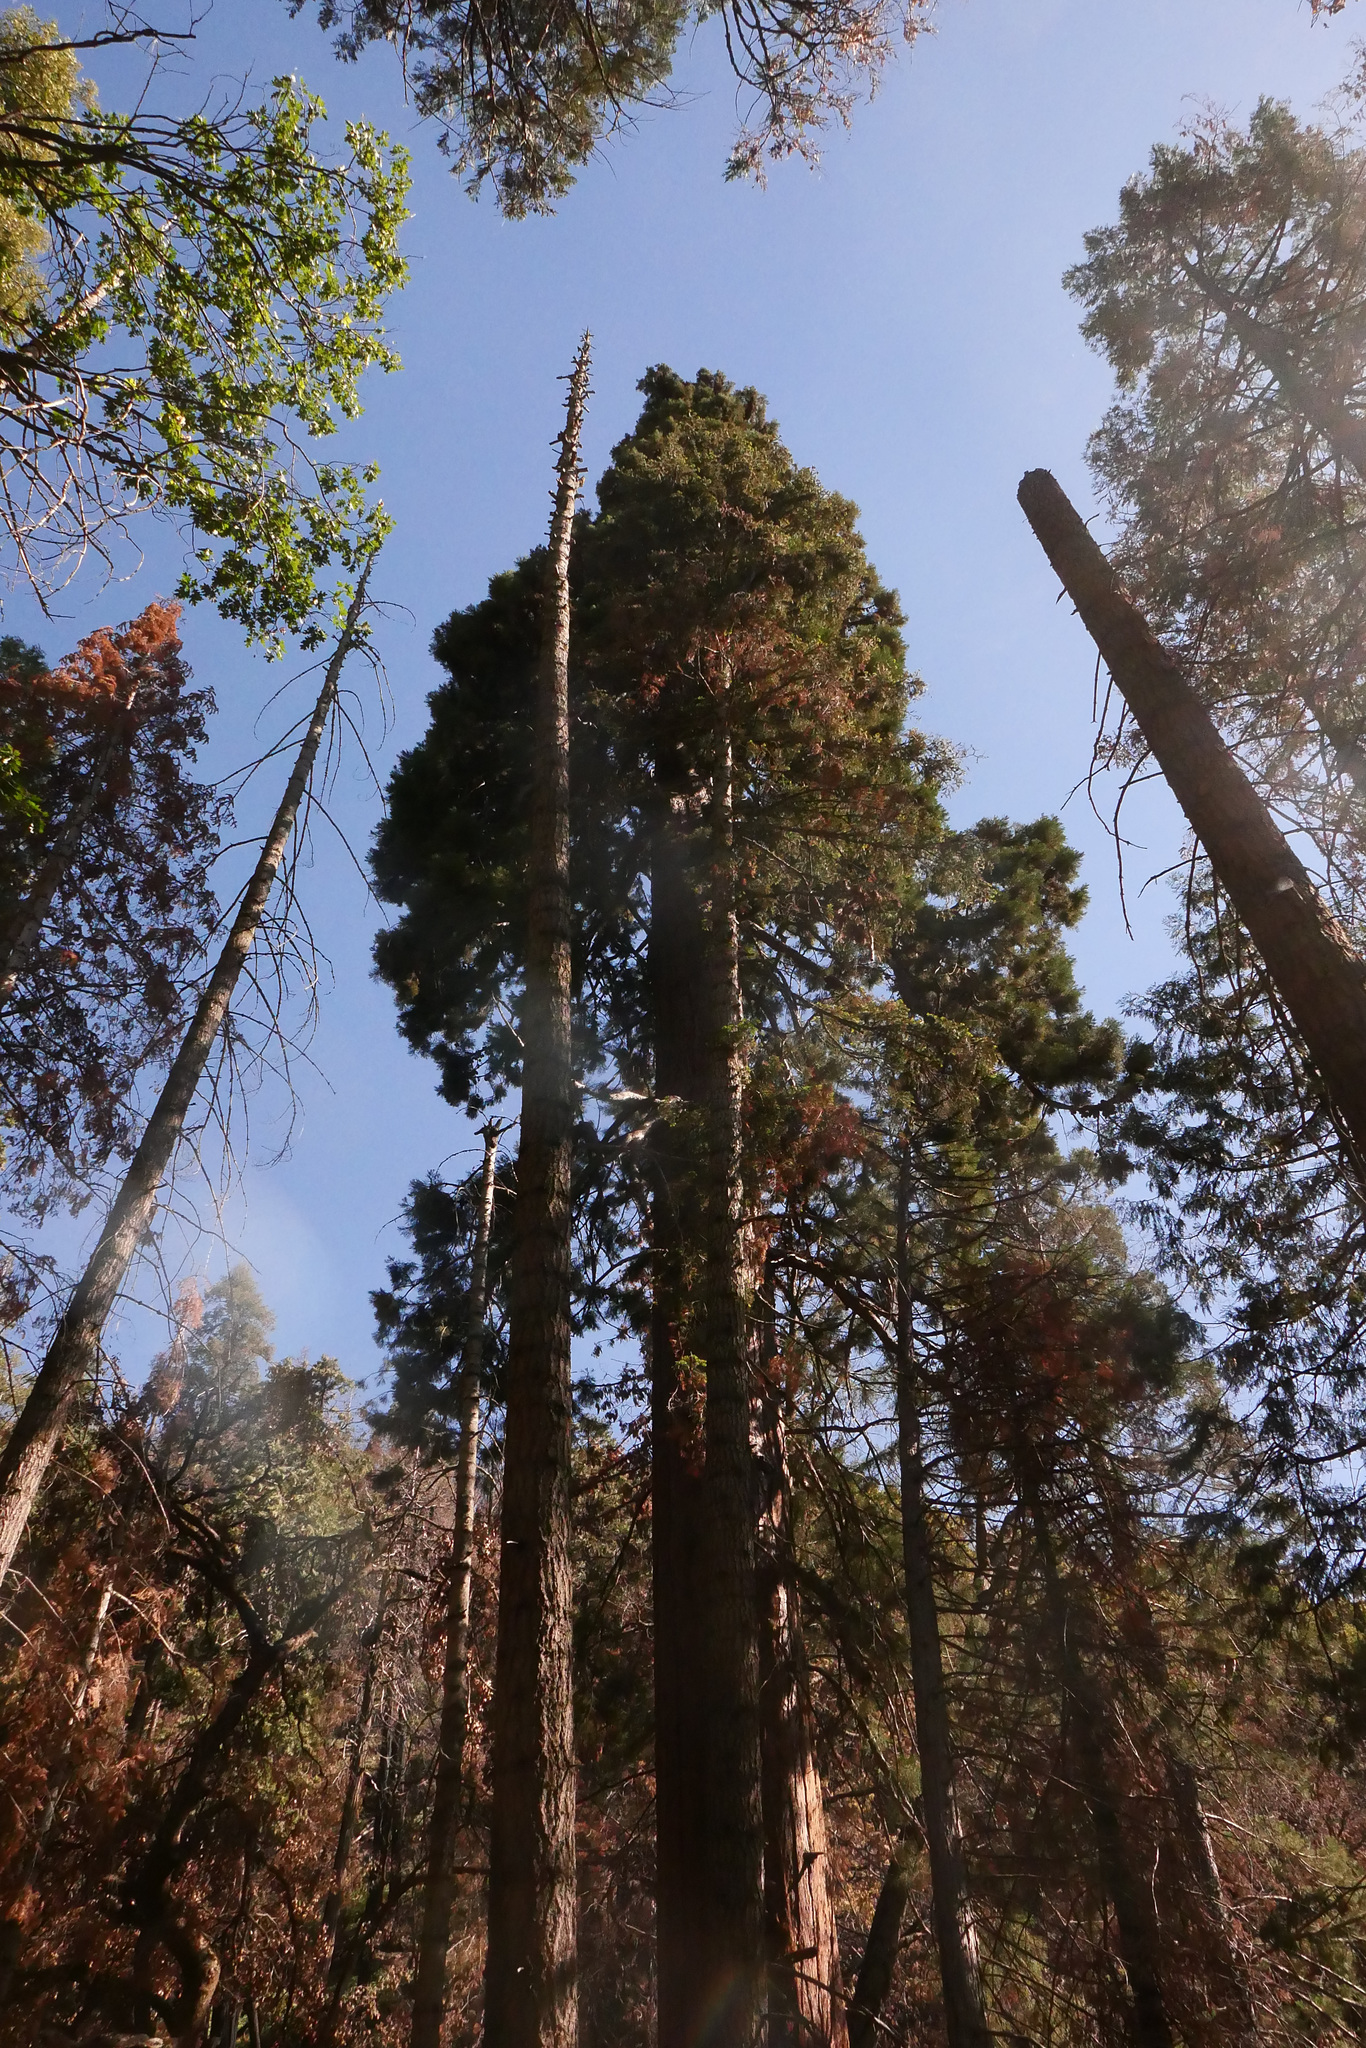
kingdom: Plantae
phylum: Tracheophyta
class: Pinopsida
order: Pinales
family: Cupressaceae
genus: Sequoiadendron
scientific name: Sequoiadendron giganteum
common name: Wellingtonia
